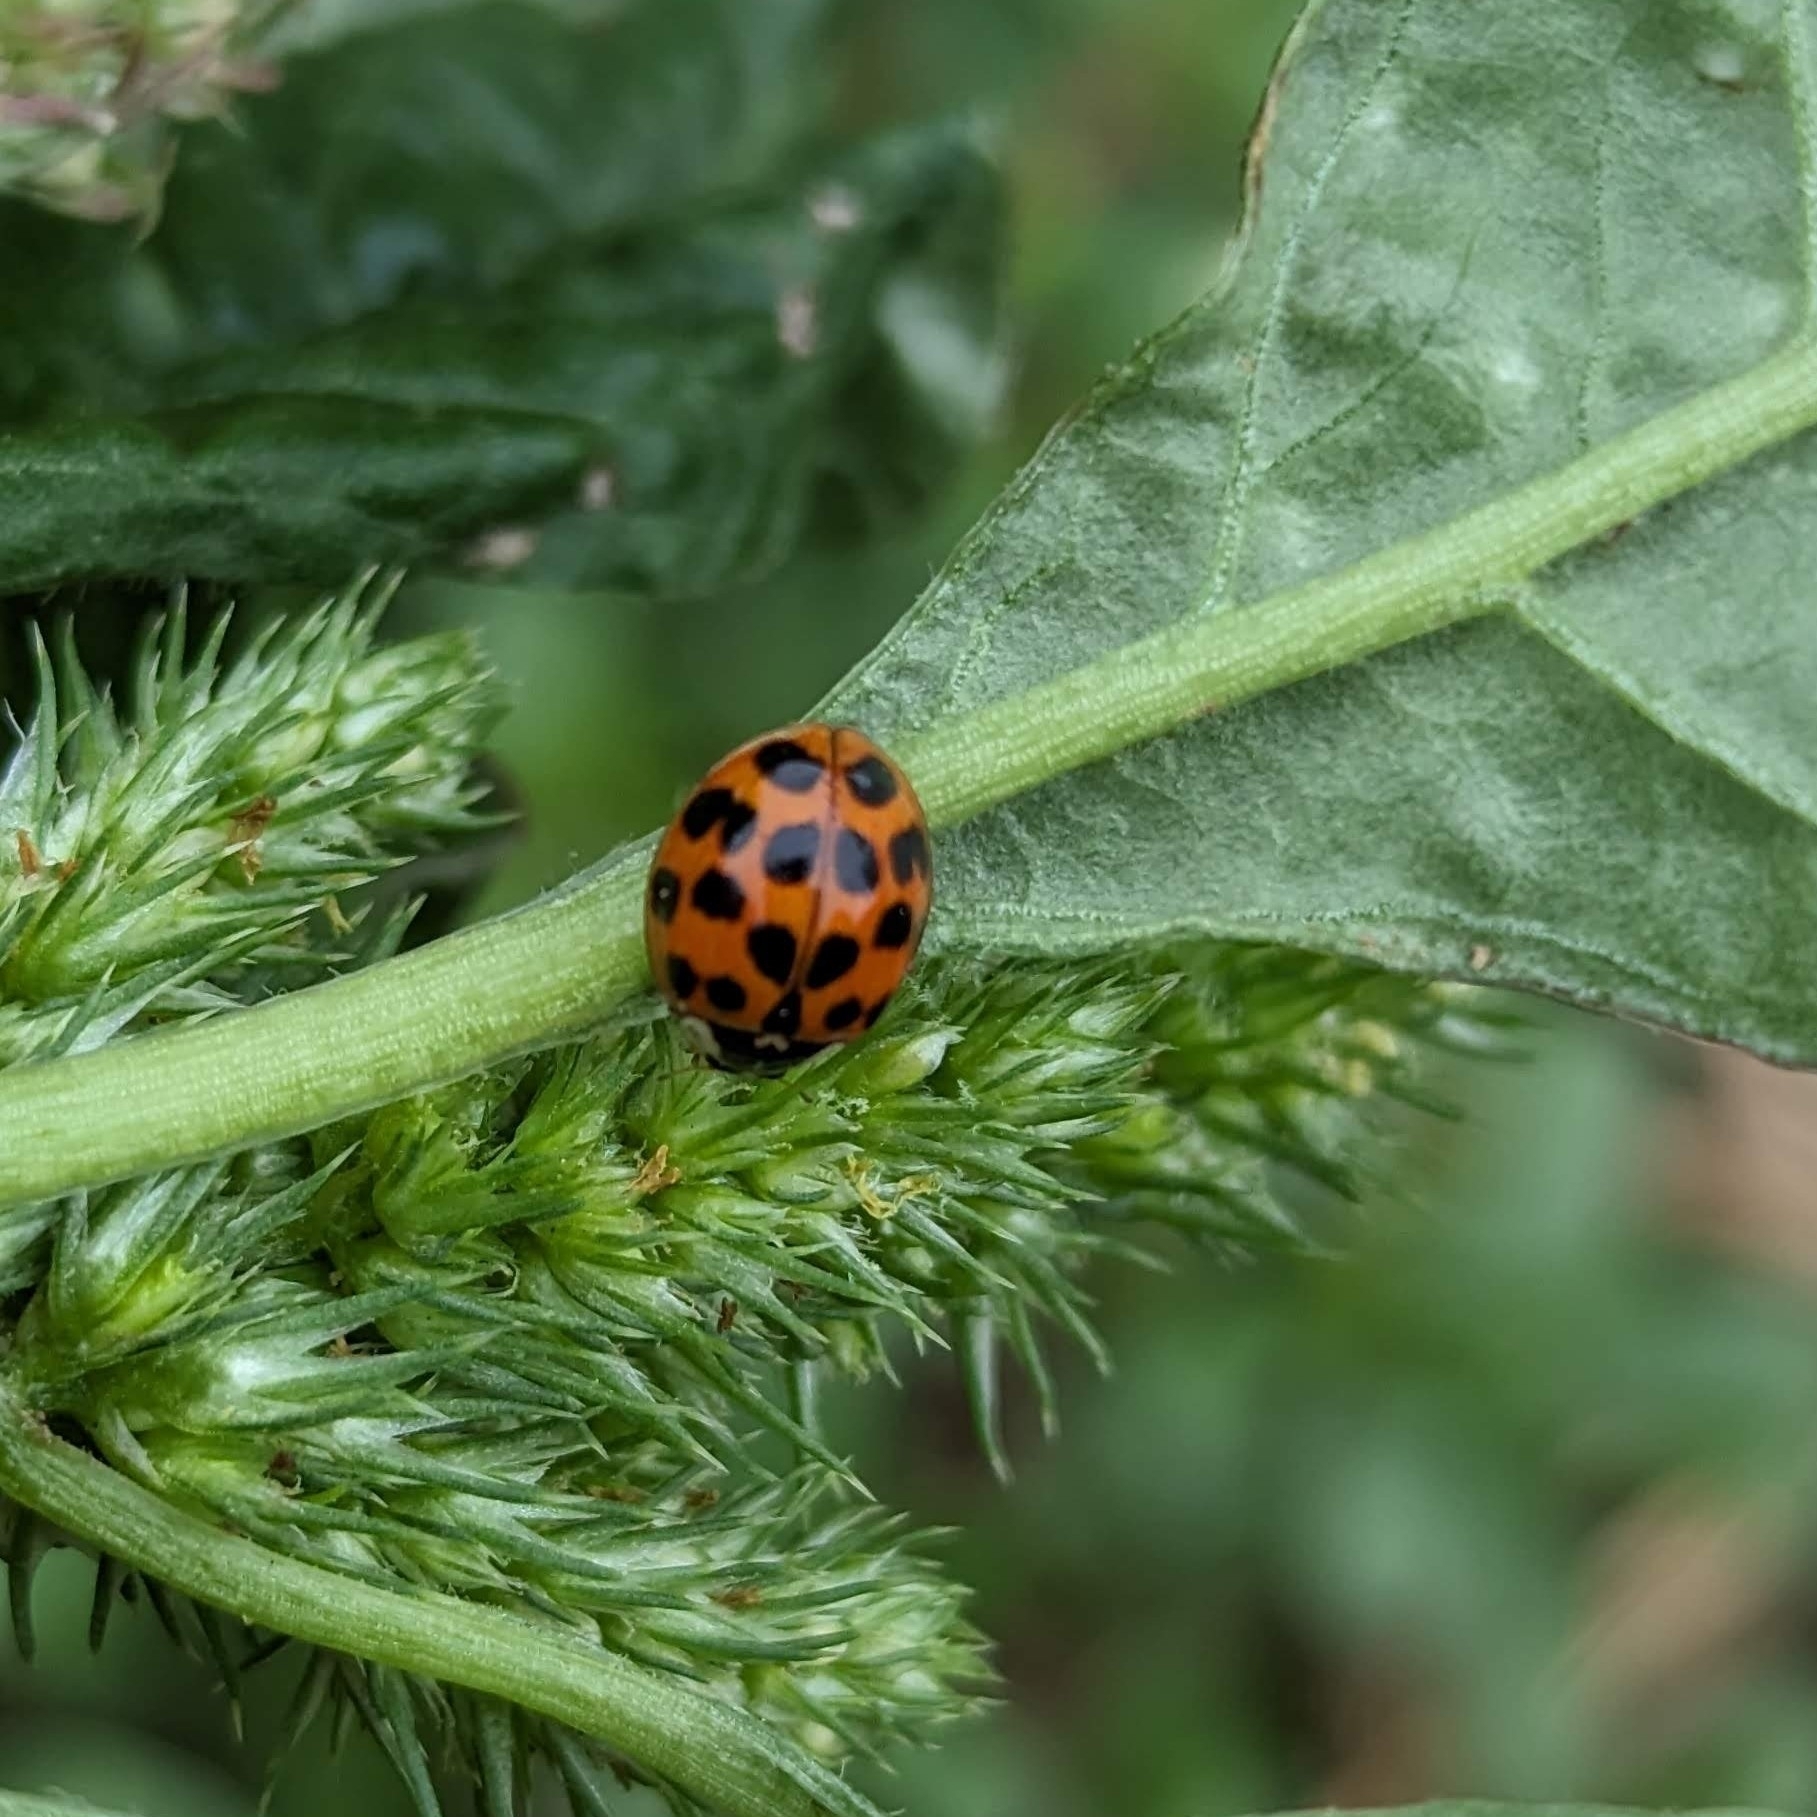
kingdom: Animalia
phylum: Arthropoda
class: Insecta
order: Coleoptera
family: Coccinellidae
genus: Harmonia
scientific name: Harmonia axyridis
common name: Harlequin ladybird
